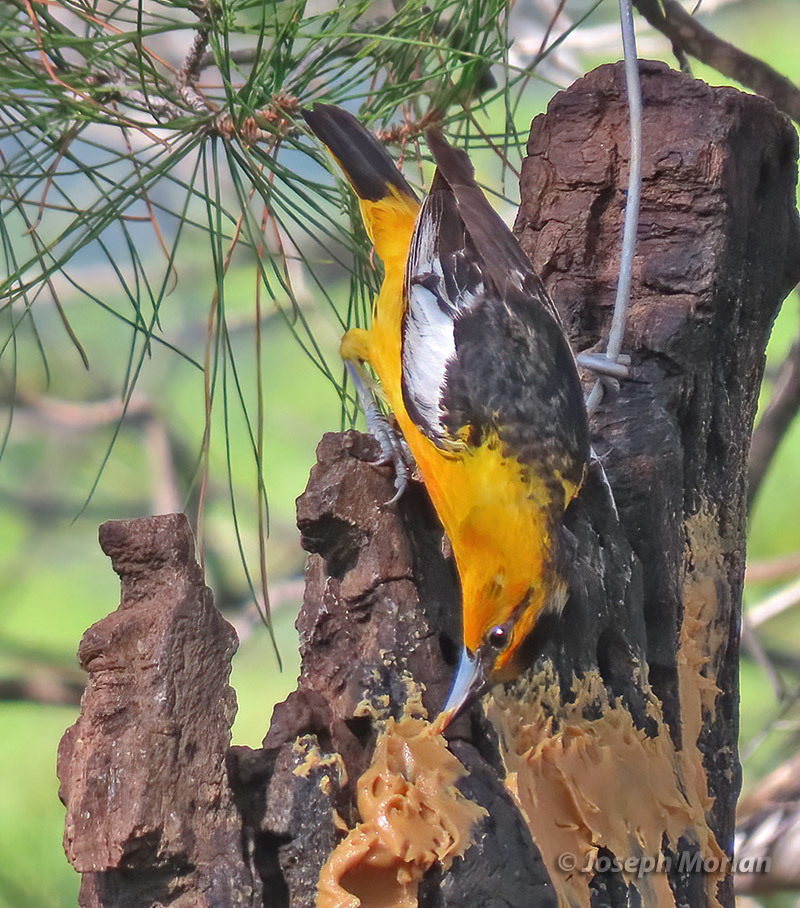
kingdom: Animalia
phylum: Chordata
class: Aves
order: Passeriformes
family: Icteridae
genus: Icterus
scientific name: Icterus bullockii
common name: Bullock's oriole
